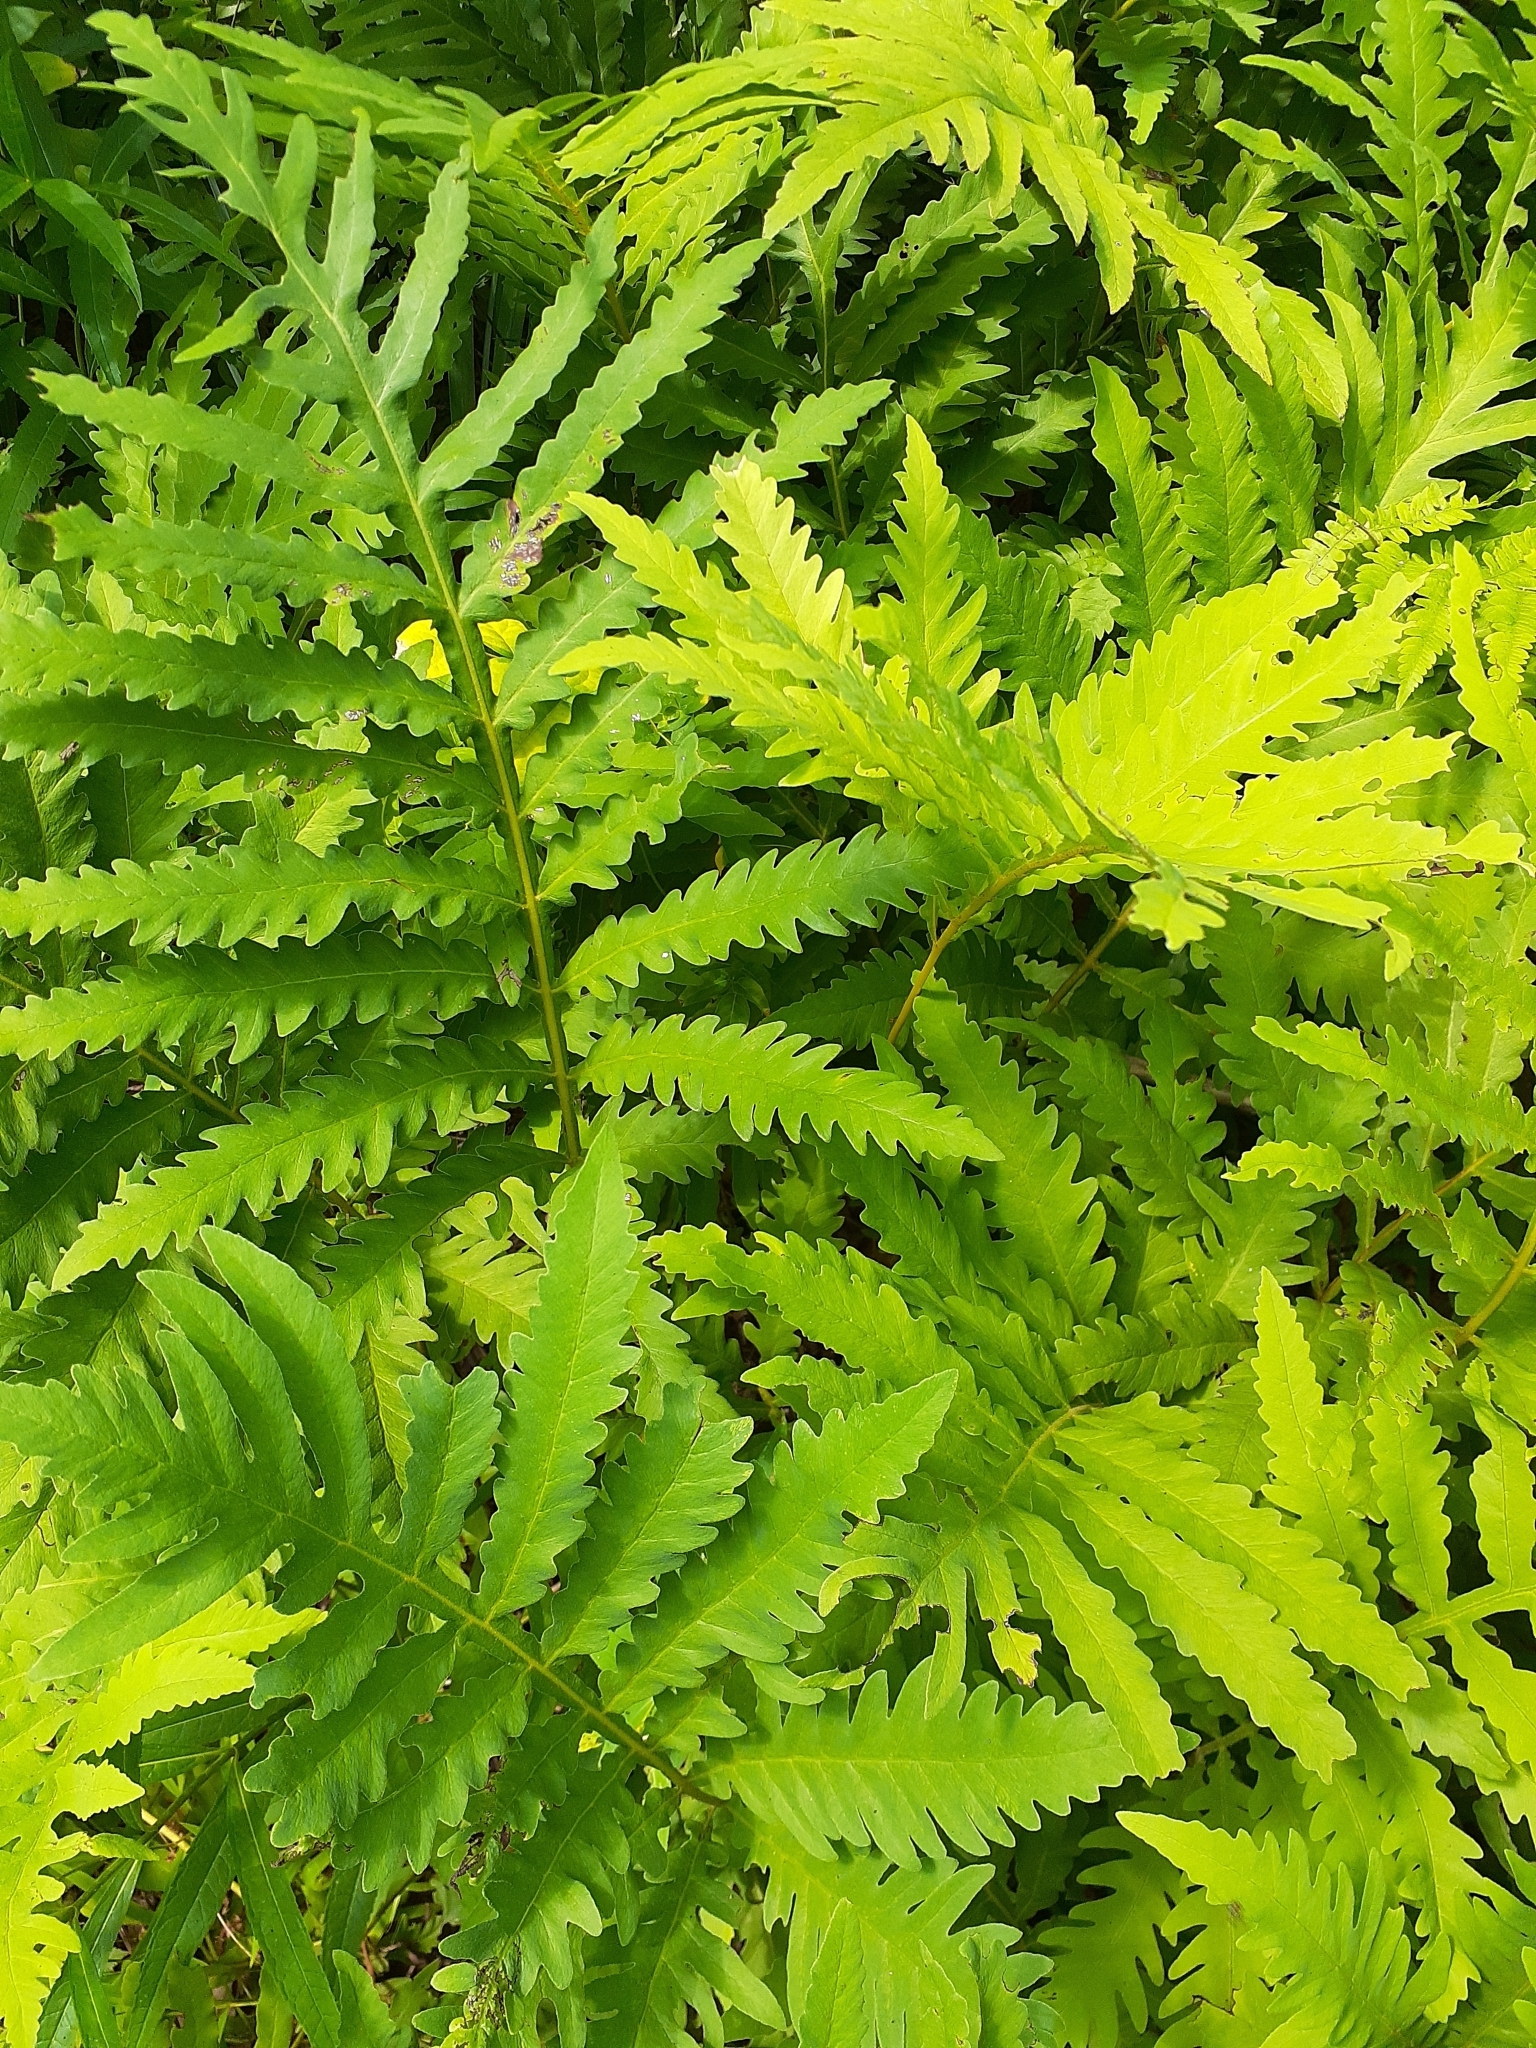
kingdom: Plantae
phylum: Tracheophyta
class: Polypodiopsida
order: Polypodiales
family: Onocleaceae
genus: Onoclea
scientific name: Onoclea sensibilis
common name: Sensitive fern
